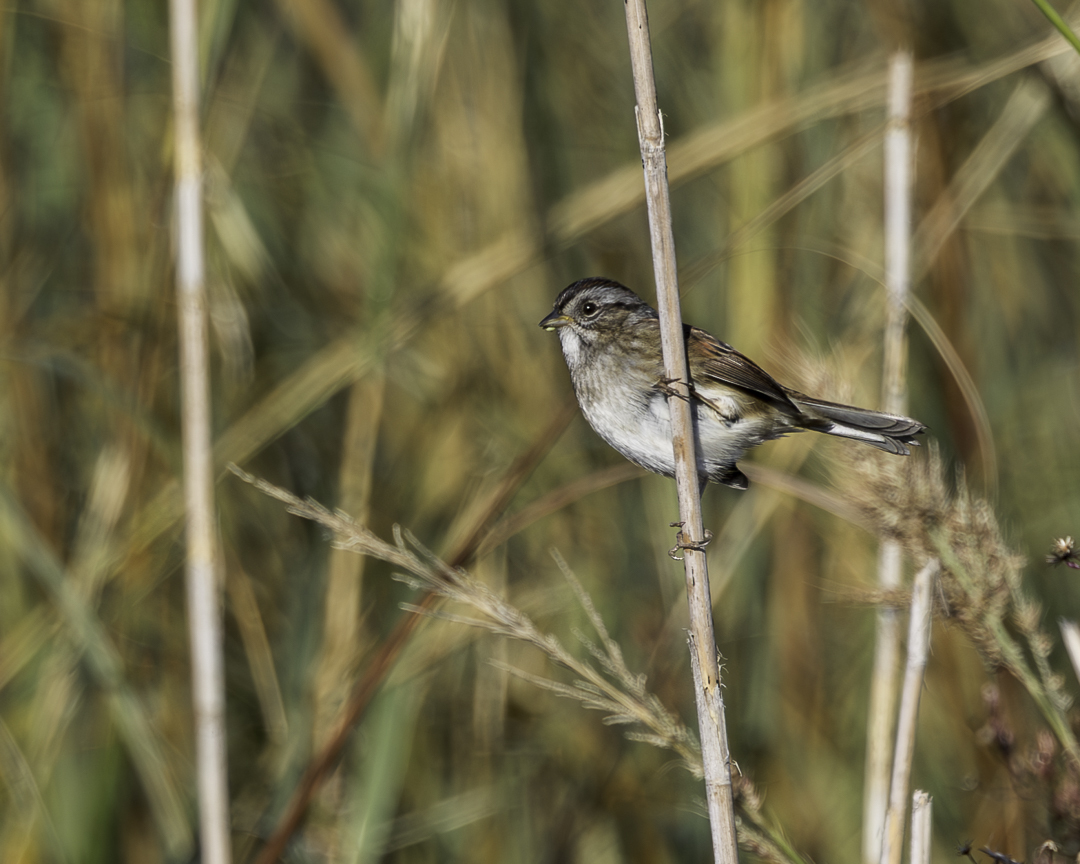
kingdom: Animalia
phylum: Chordata
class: Aves
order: Passeriformes
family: Passerellidae
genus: Melospiza
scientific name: Melospiza georgiana
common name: Swamp sparrow
